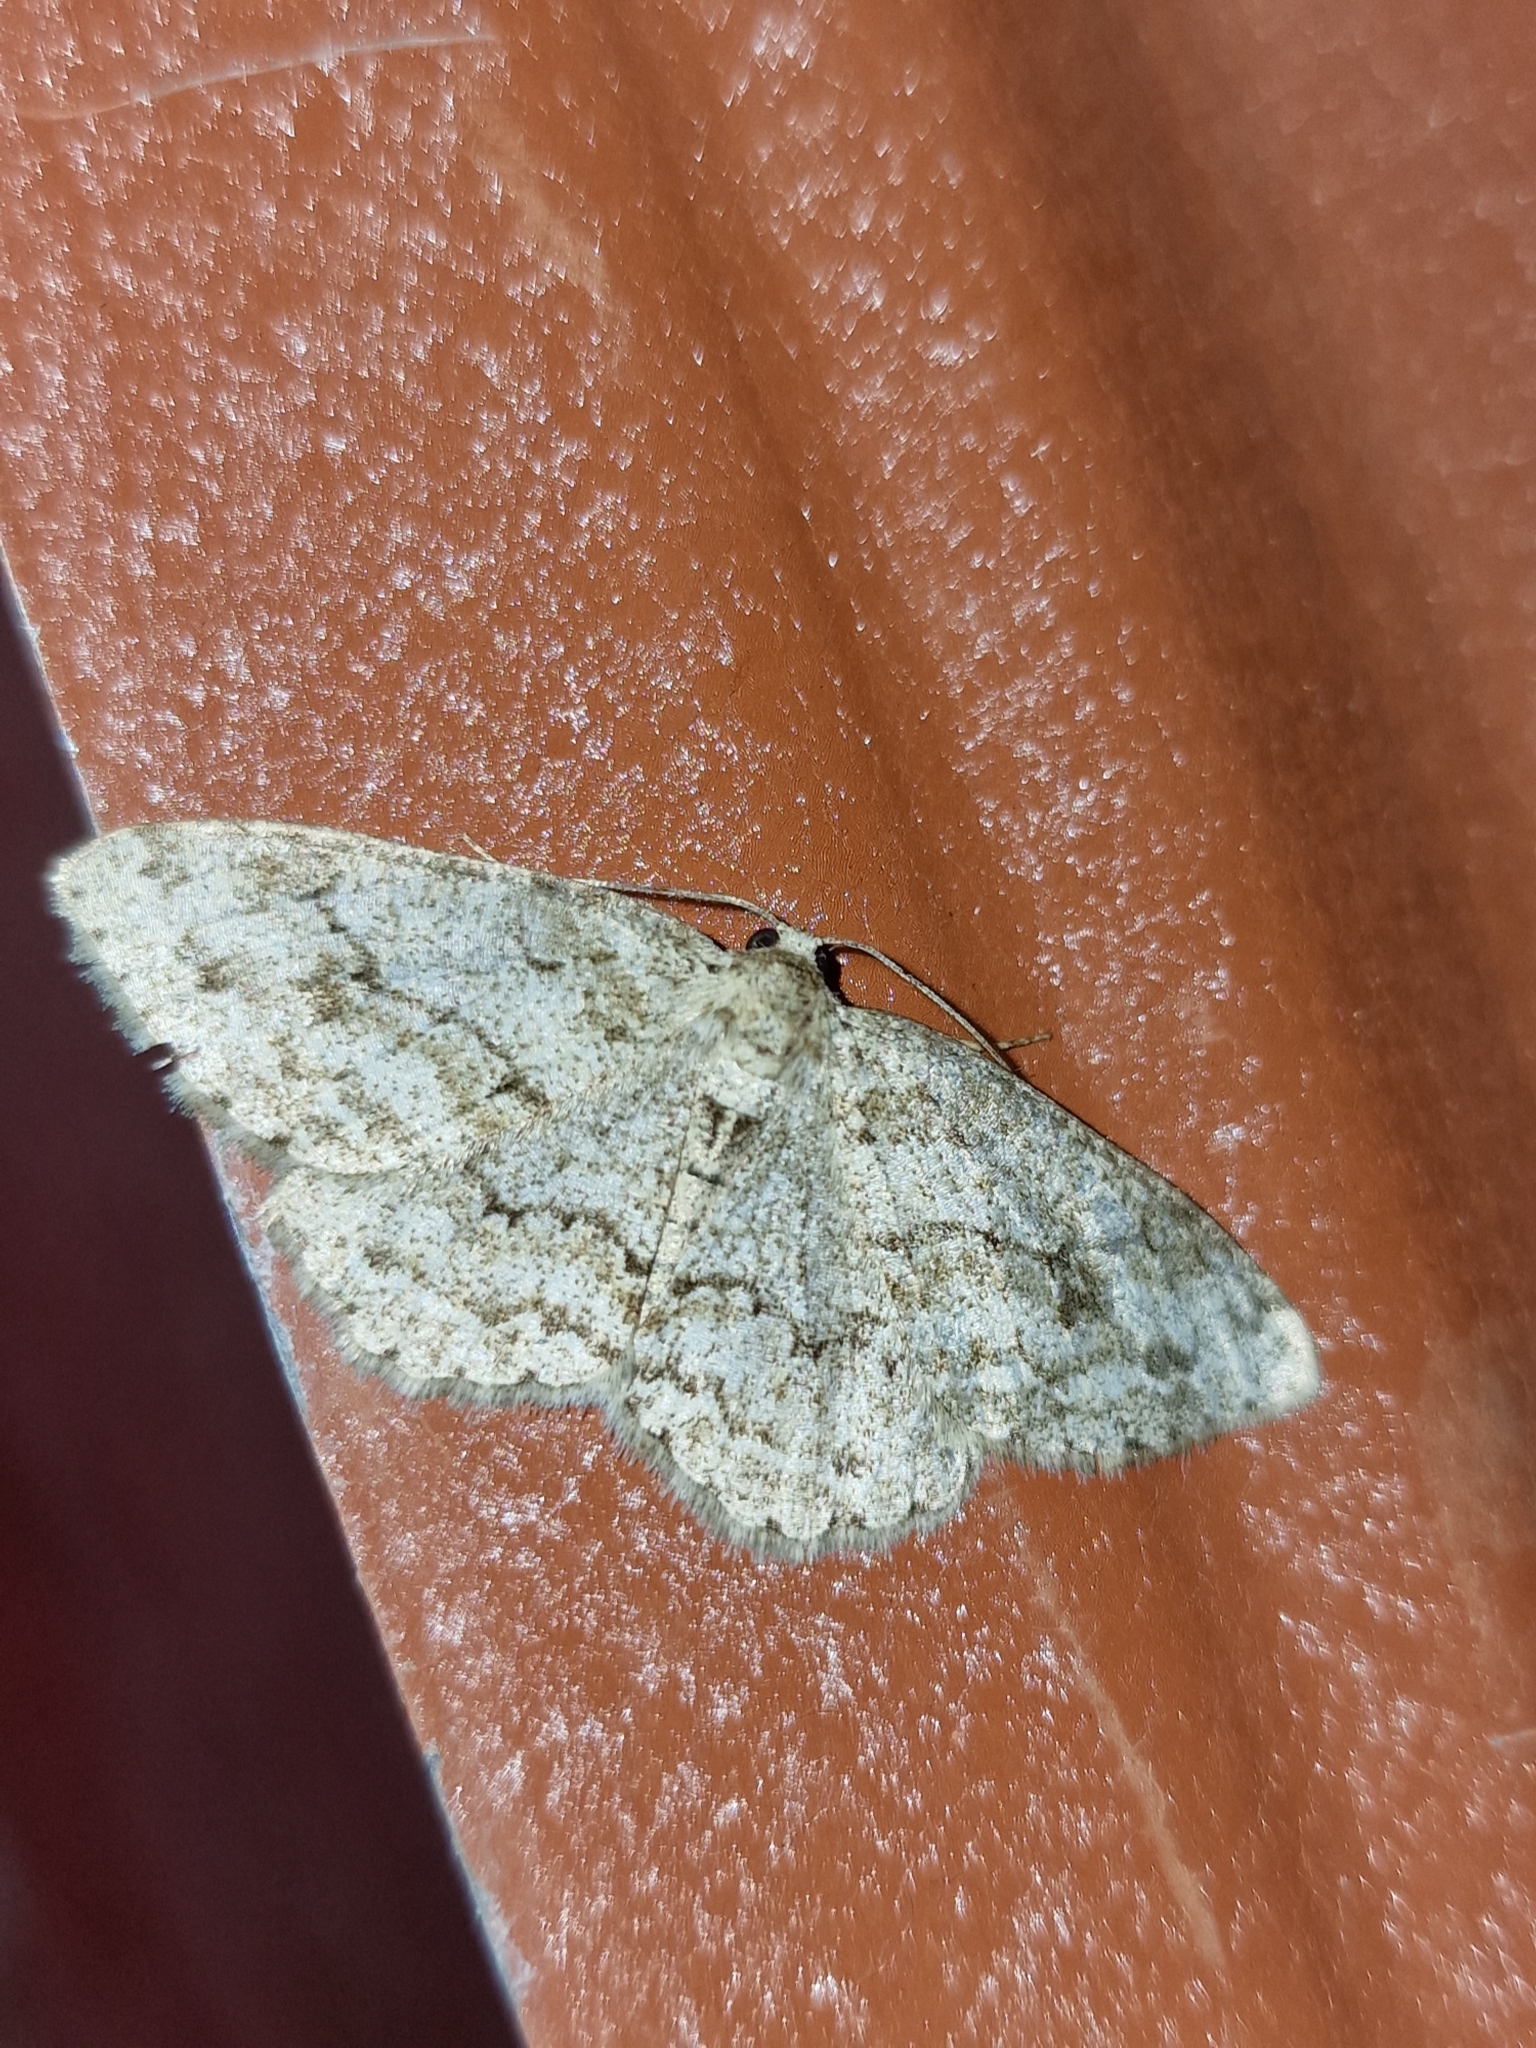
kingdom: Animalia
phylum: Arthropoda
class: Insecta
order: Lepidoptera
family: Geometridae
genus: Ectropis
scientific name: Ectropis crepuscularia
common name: Engrailed
